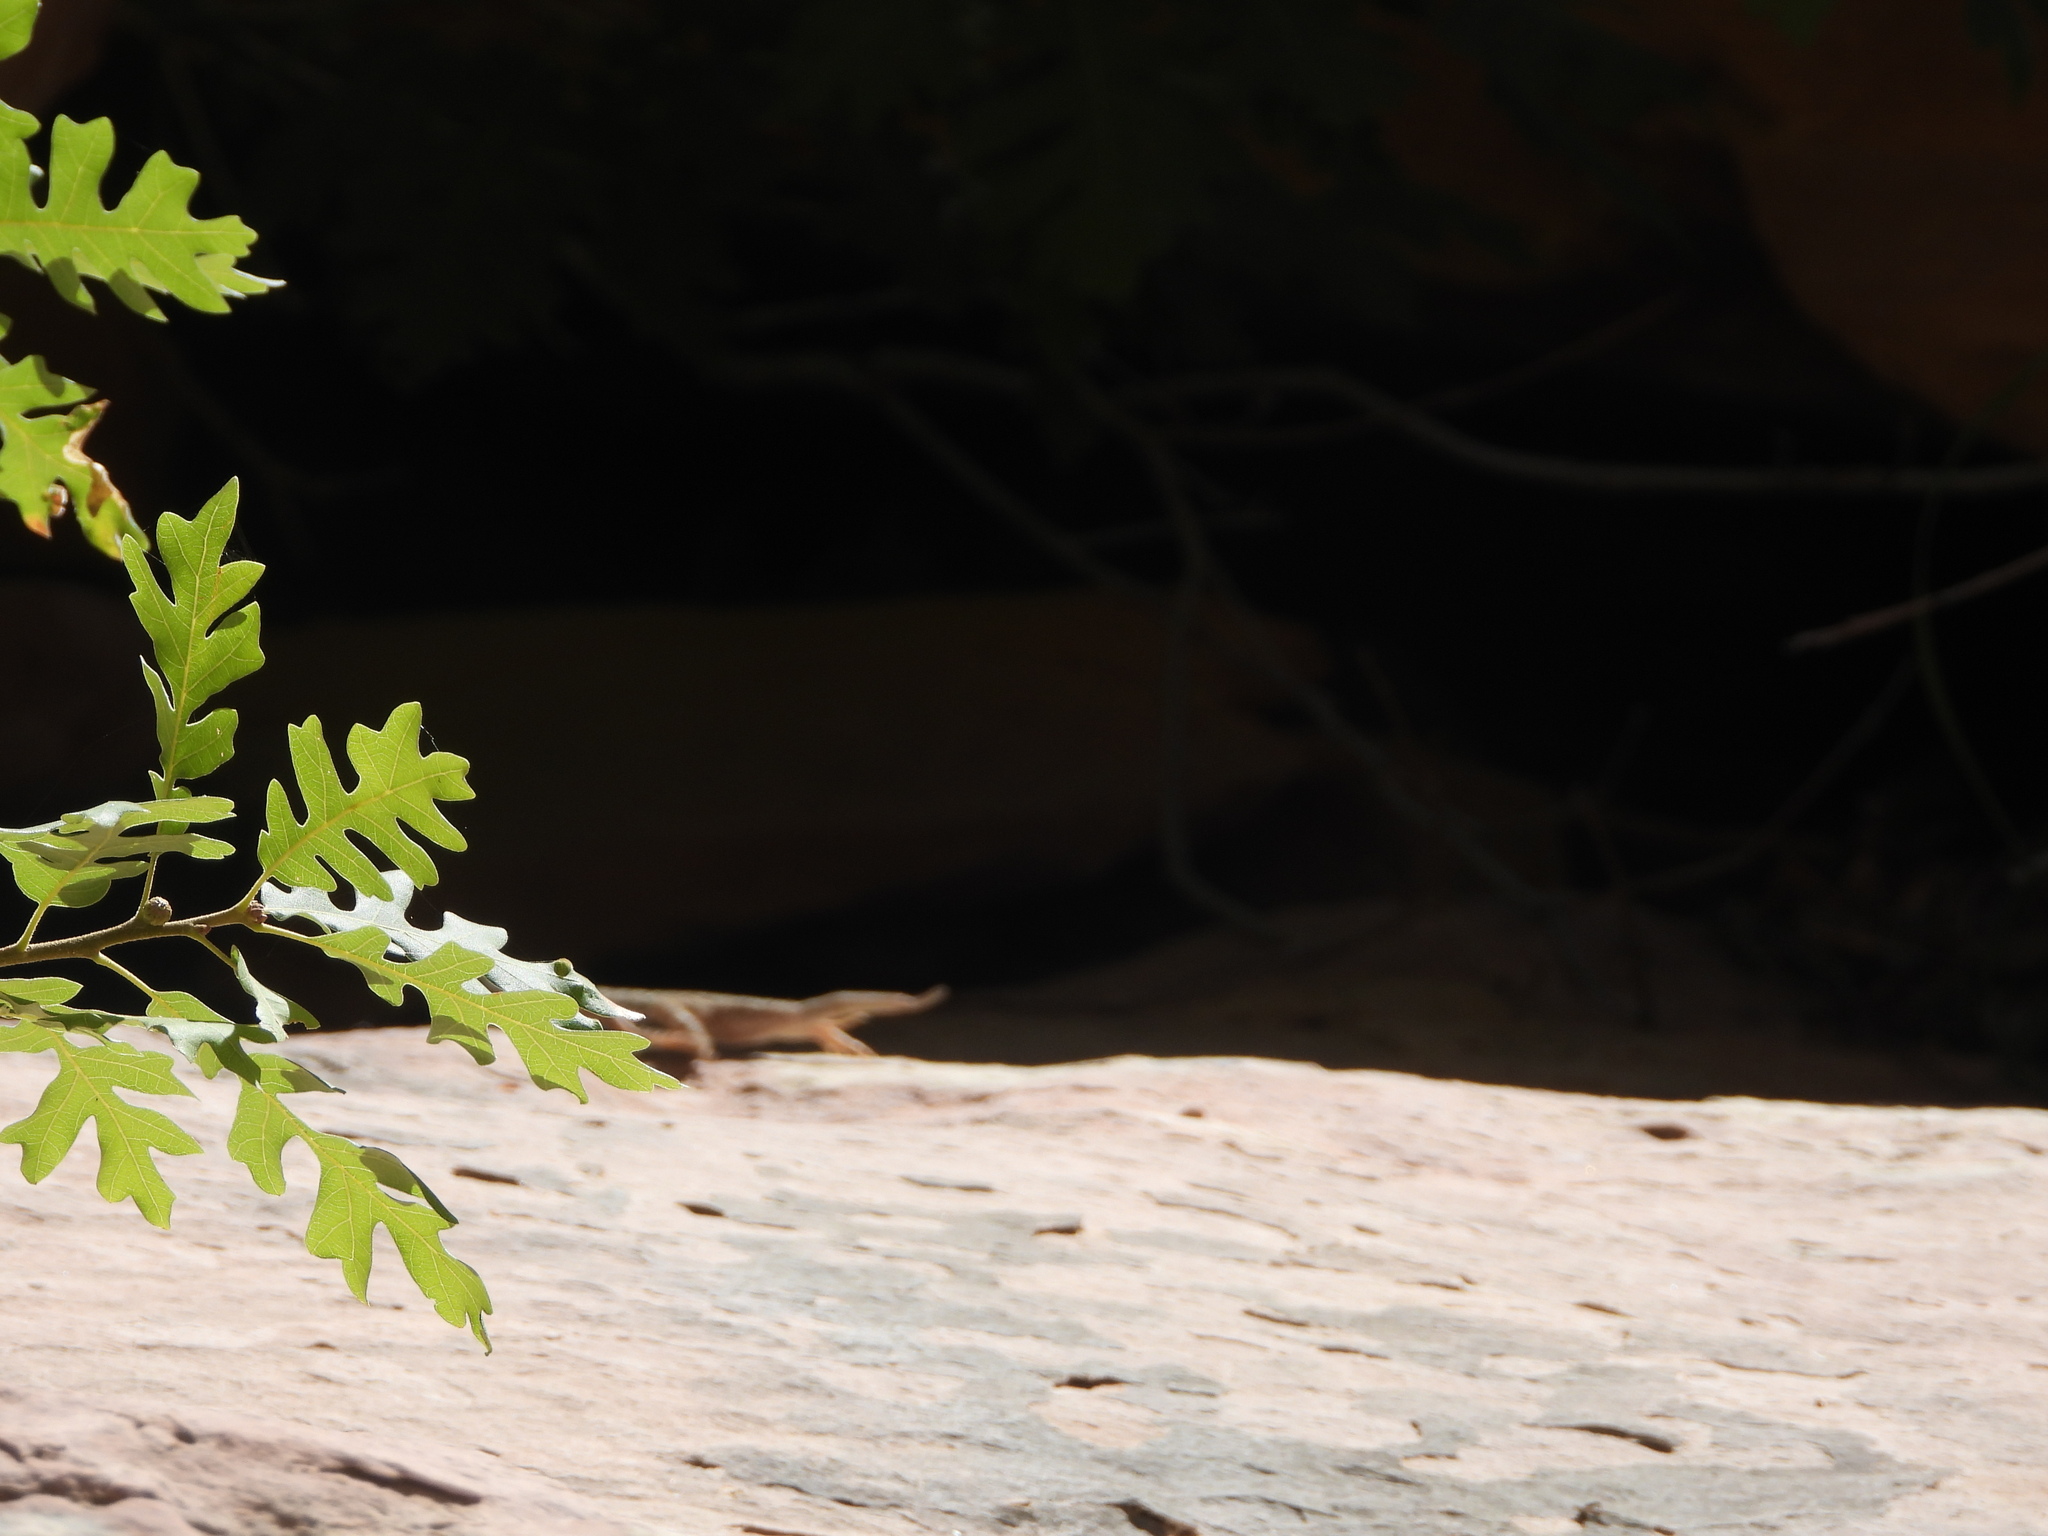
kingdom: Plantae
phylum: Tracheophyta
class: Magnoliopsida
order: Fagales
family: Fagaceae
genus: Quercus
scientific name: Quercus gambelii
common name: Gambel oak
